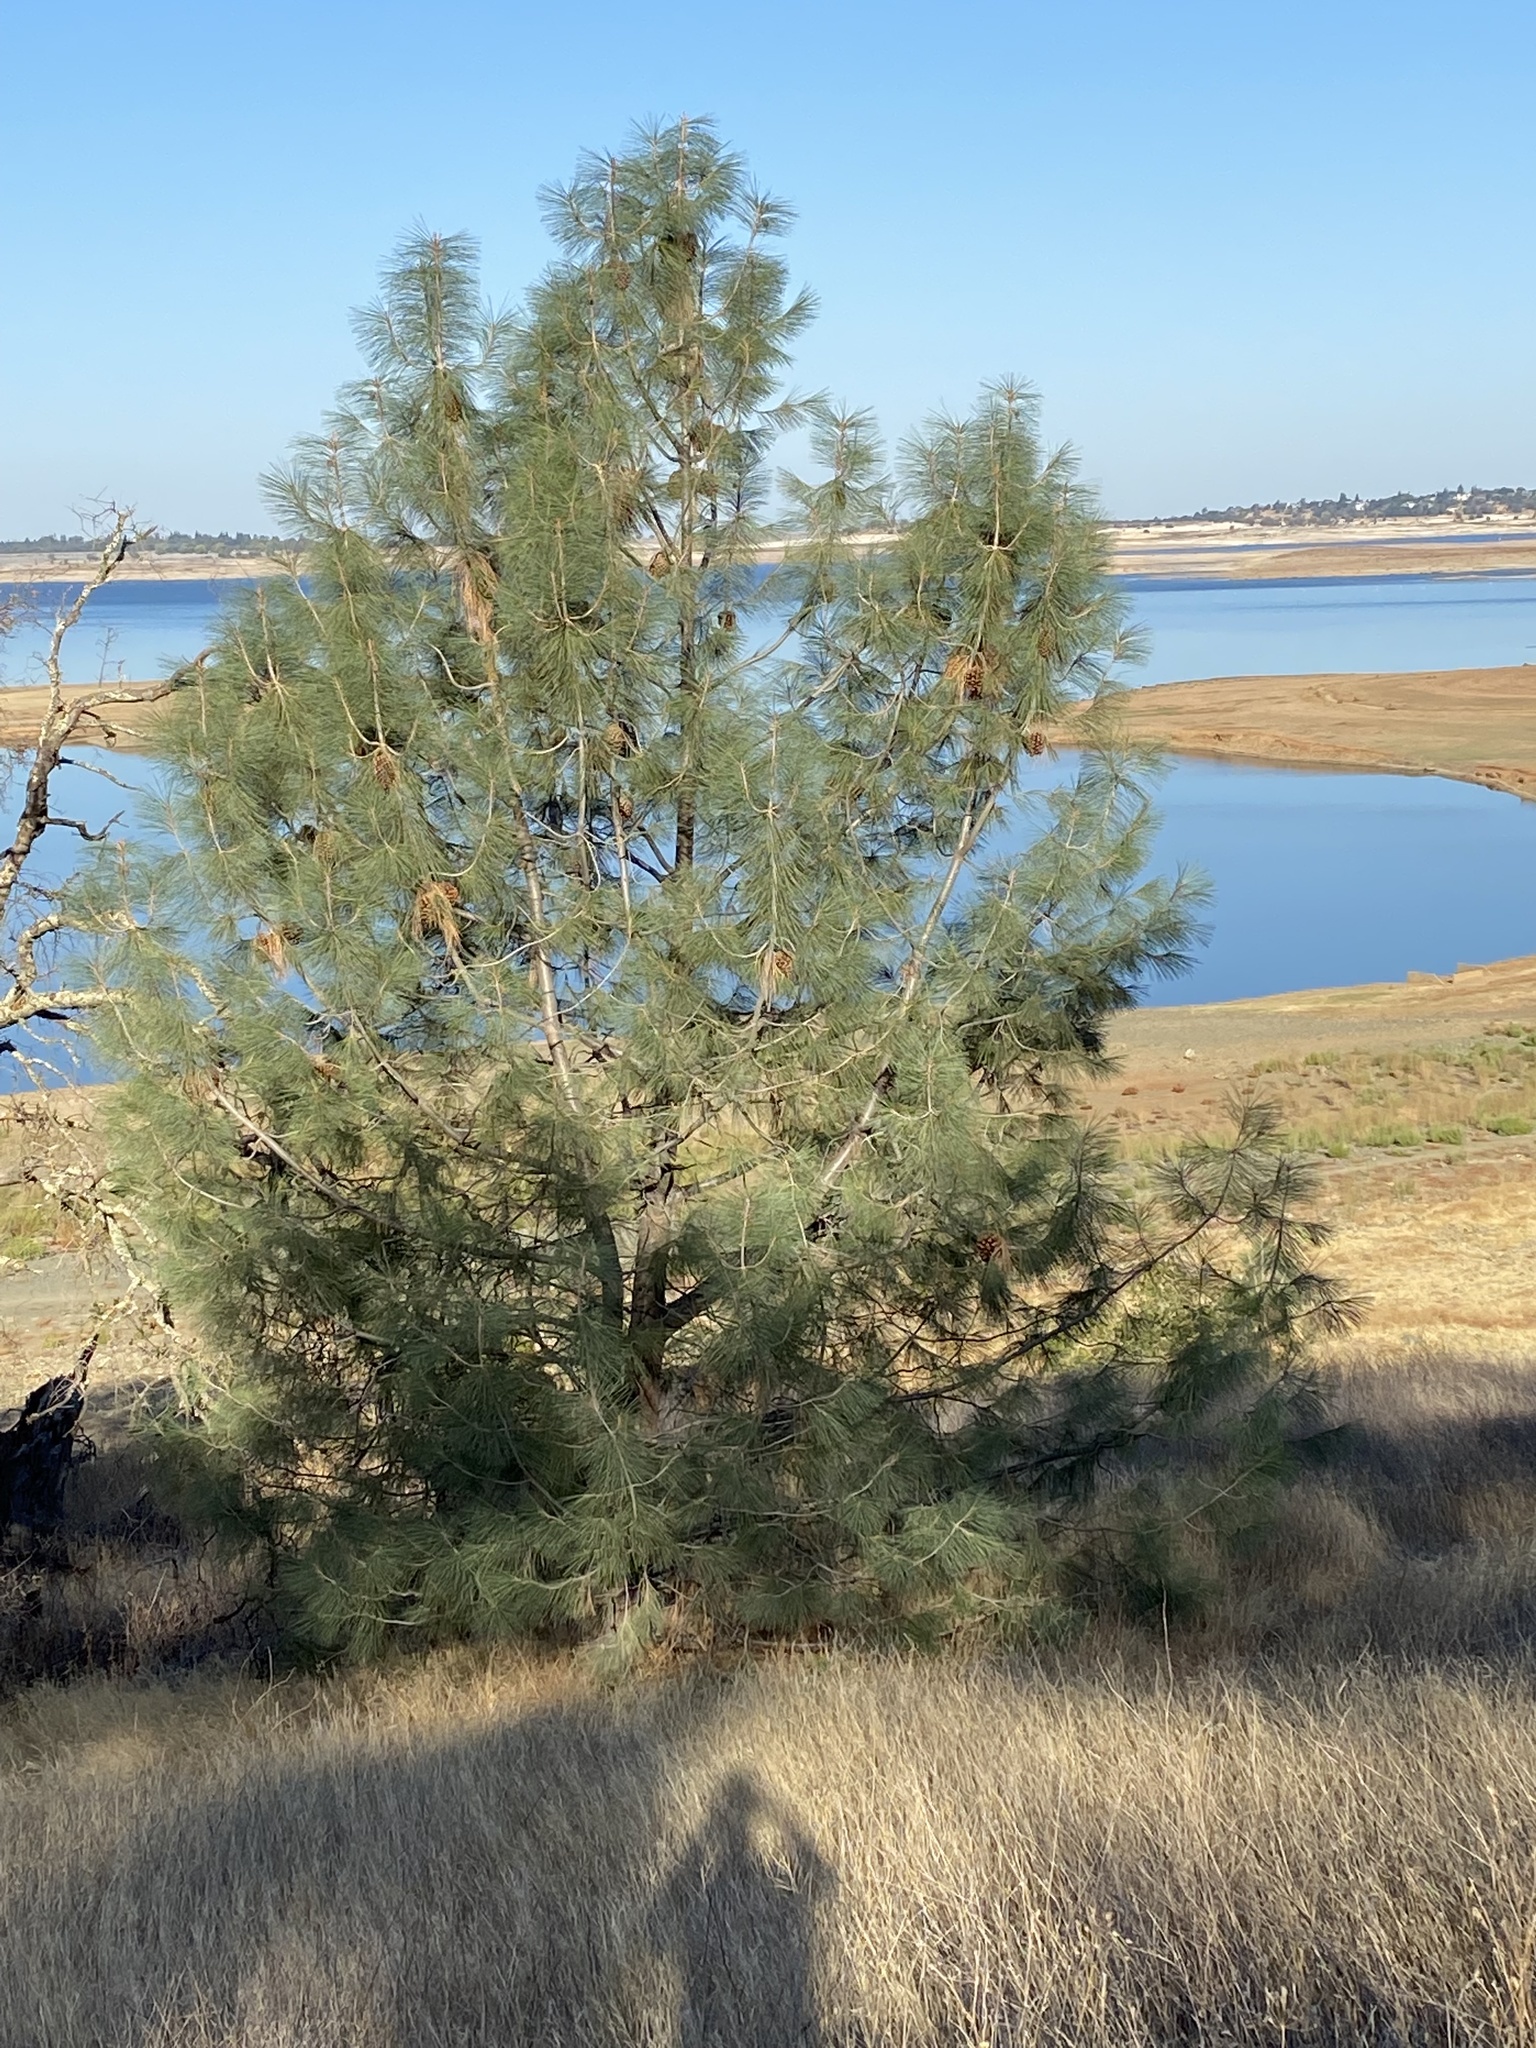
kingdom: Plantae
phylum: Tracheophyta
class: Pinopsida
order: Pinales
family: Pinaceae
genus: Pinus
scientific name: Pinus sabiniana
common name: Bull pine
